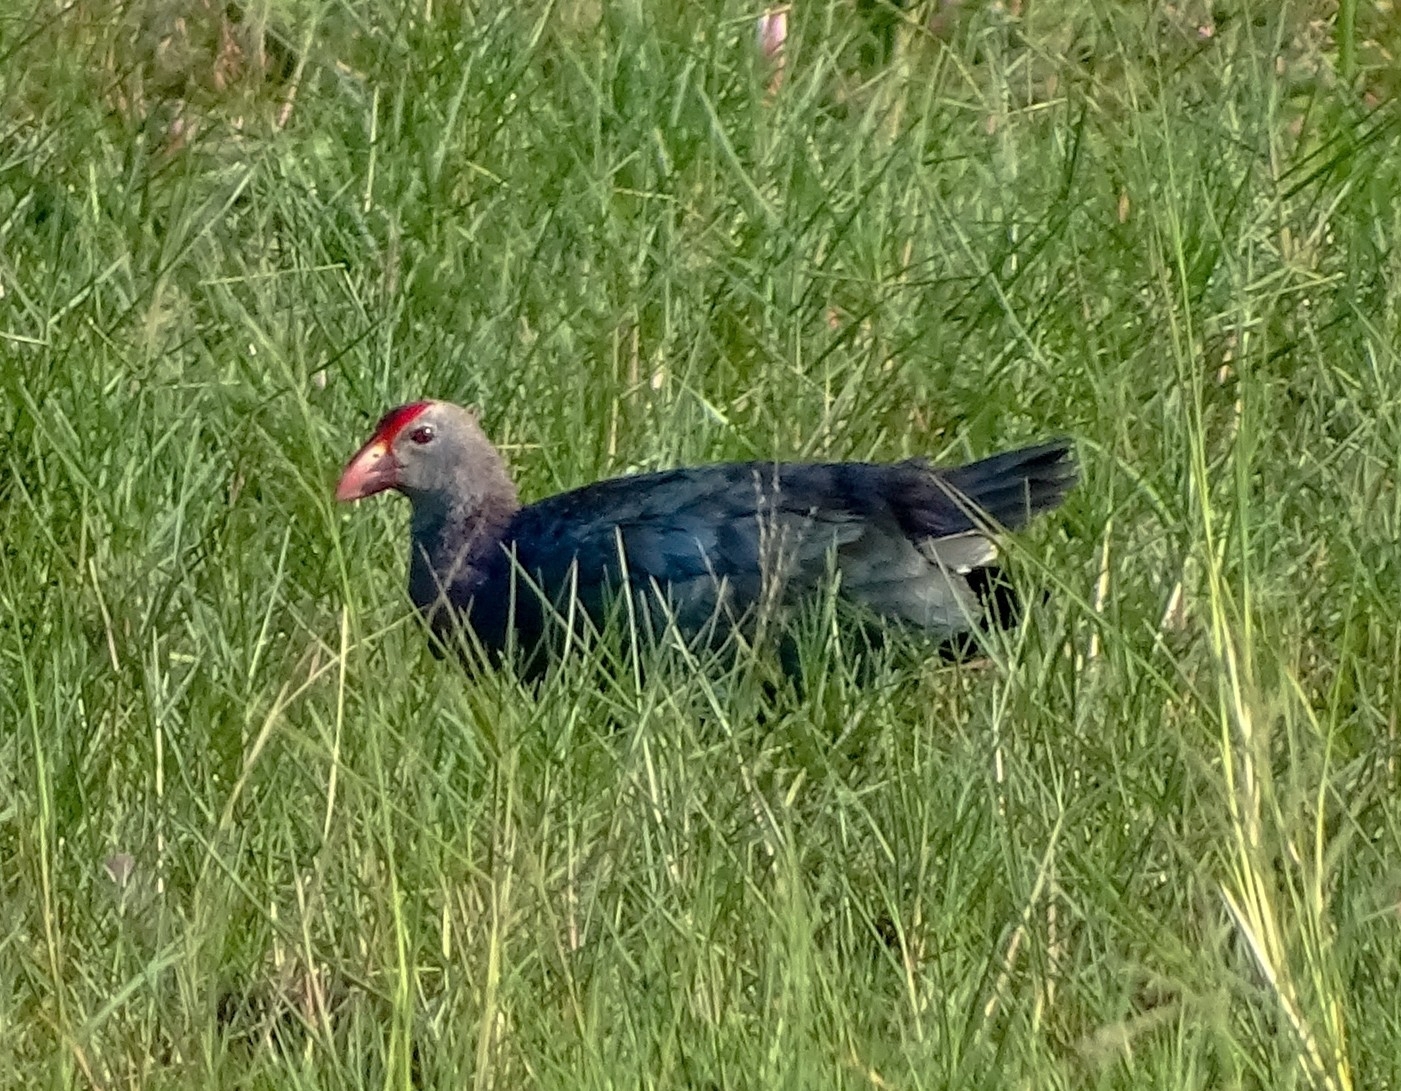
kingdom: Animalia
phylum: Chordata
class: Aves
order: Gruiformes
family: Rallidae
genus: Porphyrio
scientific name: Porphyrio porphyrio
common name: Purple swamphen
